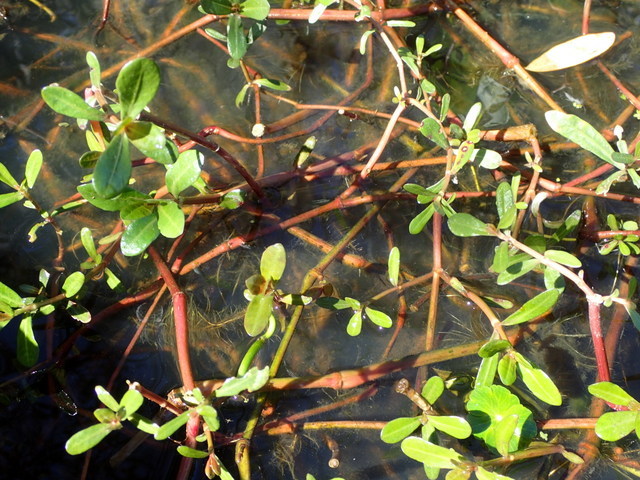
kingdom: Plantae
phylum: Tracheophyta
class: Magnoliopsida
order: Caryophyllales
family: Amaranthaceae
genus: Alternanthera
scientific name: Alternanthera philoxeroides
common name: Alligatorweed
